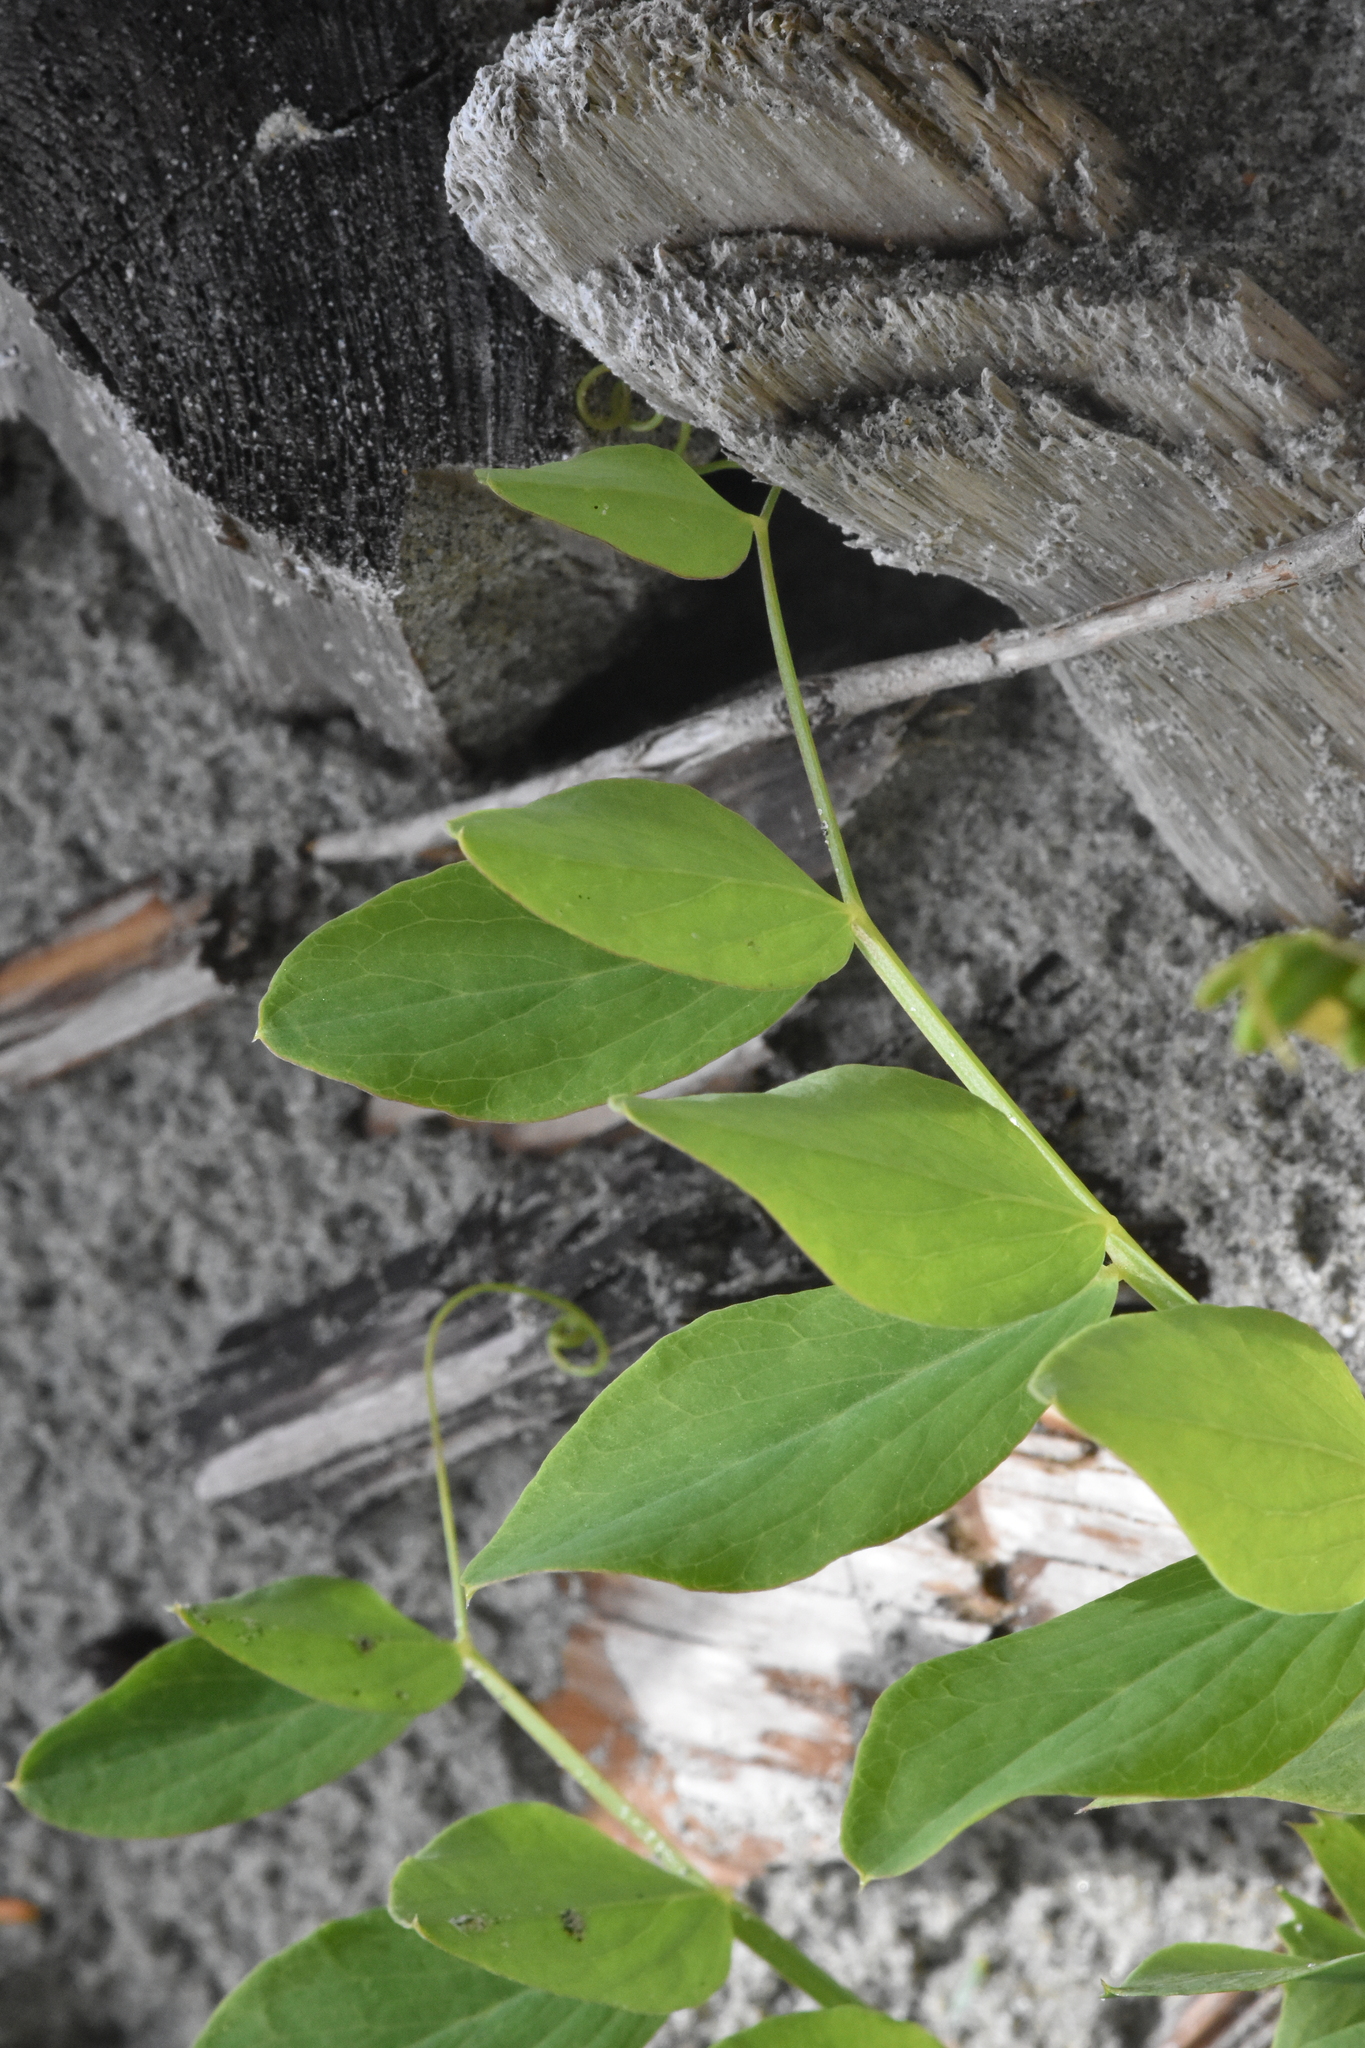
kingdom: Plantae
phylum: Tracheophyta
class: Magnoliopsida
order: Fabales
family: Fabaceae
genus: Lathyrus
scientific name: Lathyrus japonicus
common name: Sea pea
